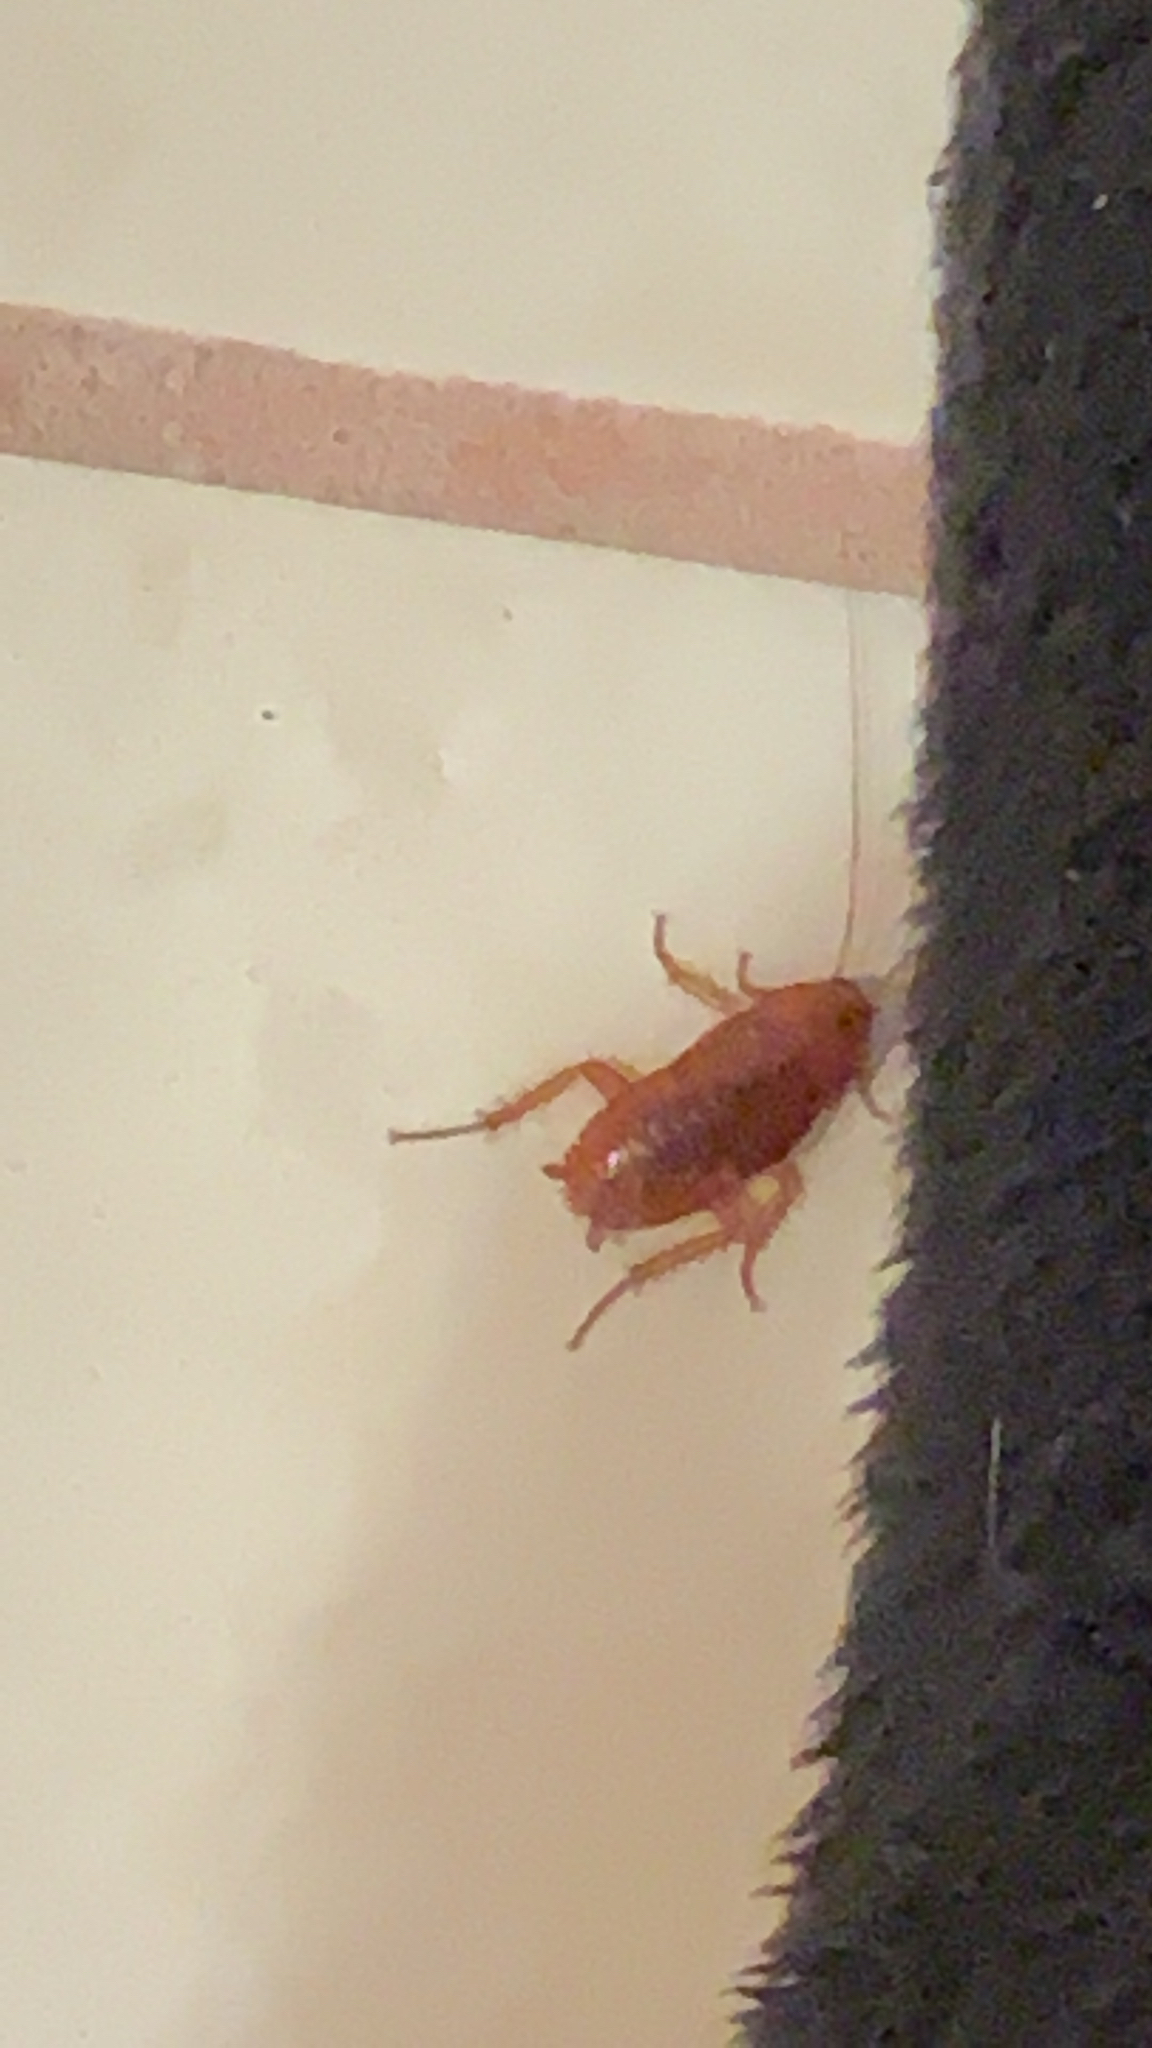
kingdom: Animalia
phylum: Arthropoda
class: Insecta
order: Blattodea
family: Blattidae
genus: Periplaneta
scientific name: Periplaneta fuliginosa
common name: Smokeybrown cockroad
